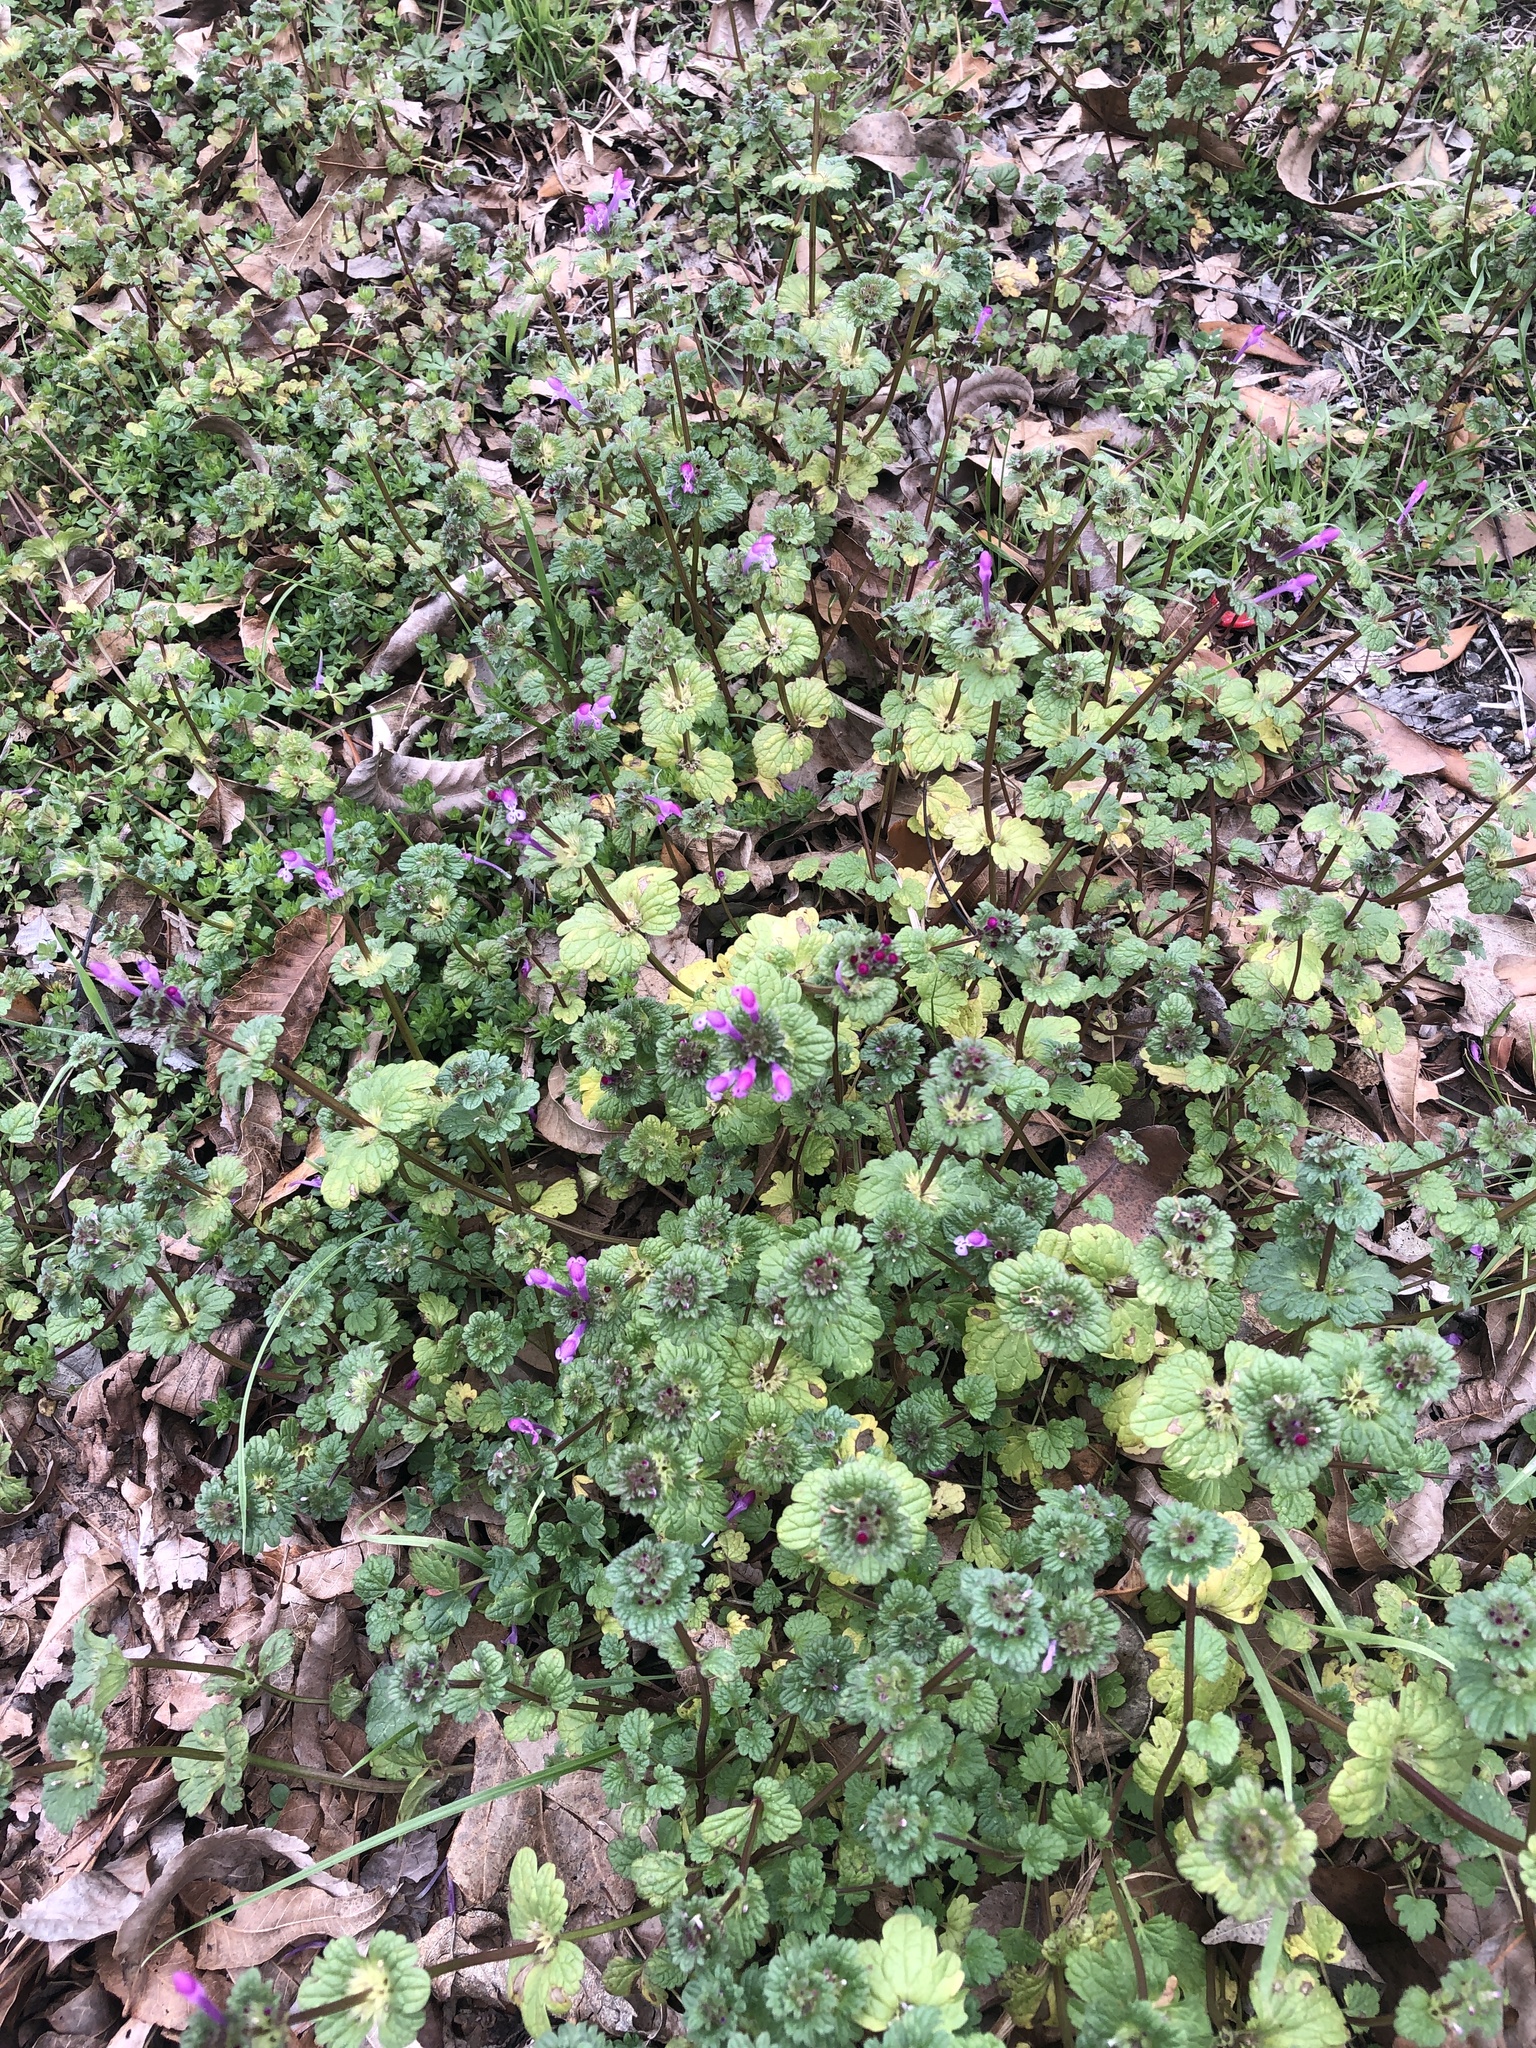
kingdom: Plantae
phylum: Tracheophyta
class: Magnoliopsida
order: Lamiales
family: Lamiaceae
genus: Lamium
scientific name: Lamium amplexicaule
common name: Henbit dead-nettle
